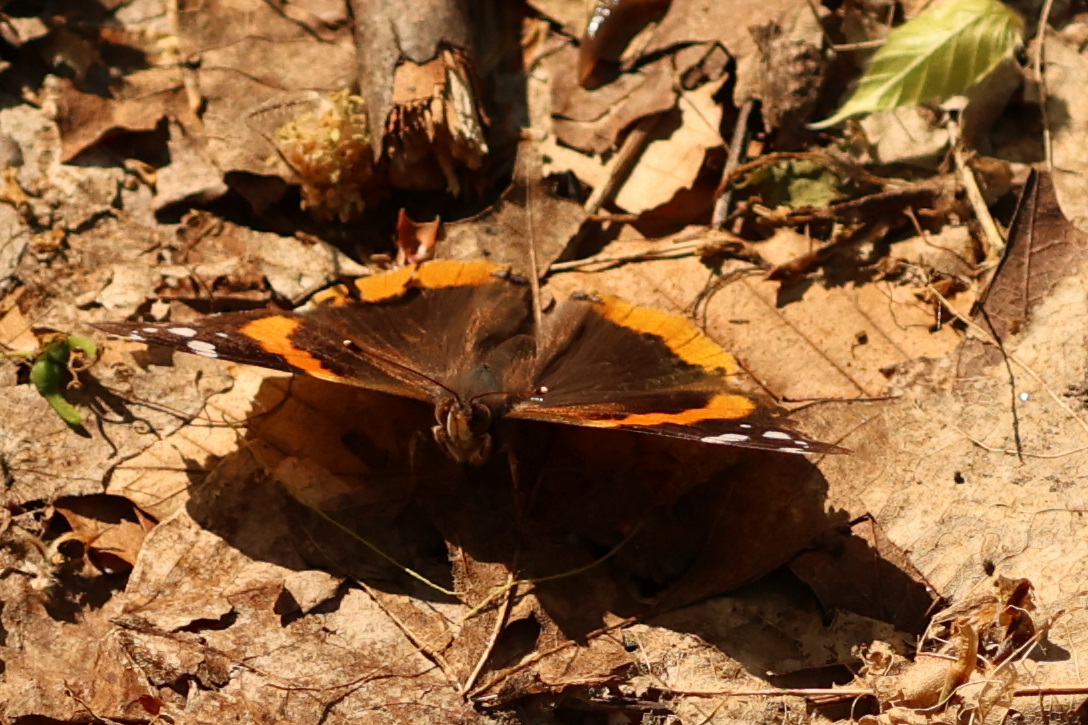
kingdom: Animalia
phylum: Arthropoda
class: Insecta
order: Lepidoptera
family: Nymphalidae
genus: Vanessa
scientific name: Vanessa atalanta
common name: Red admiral
